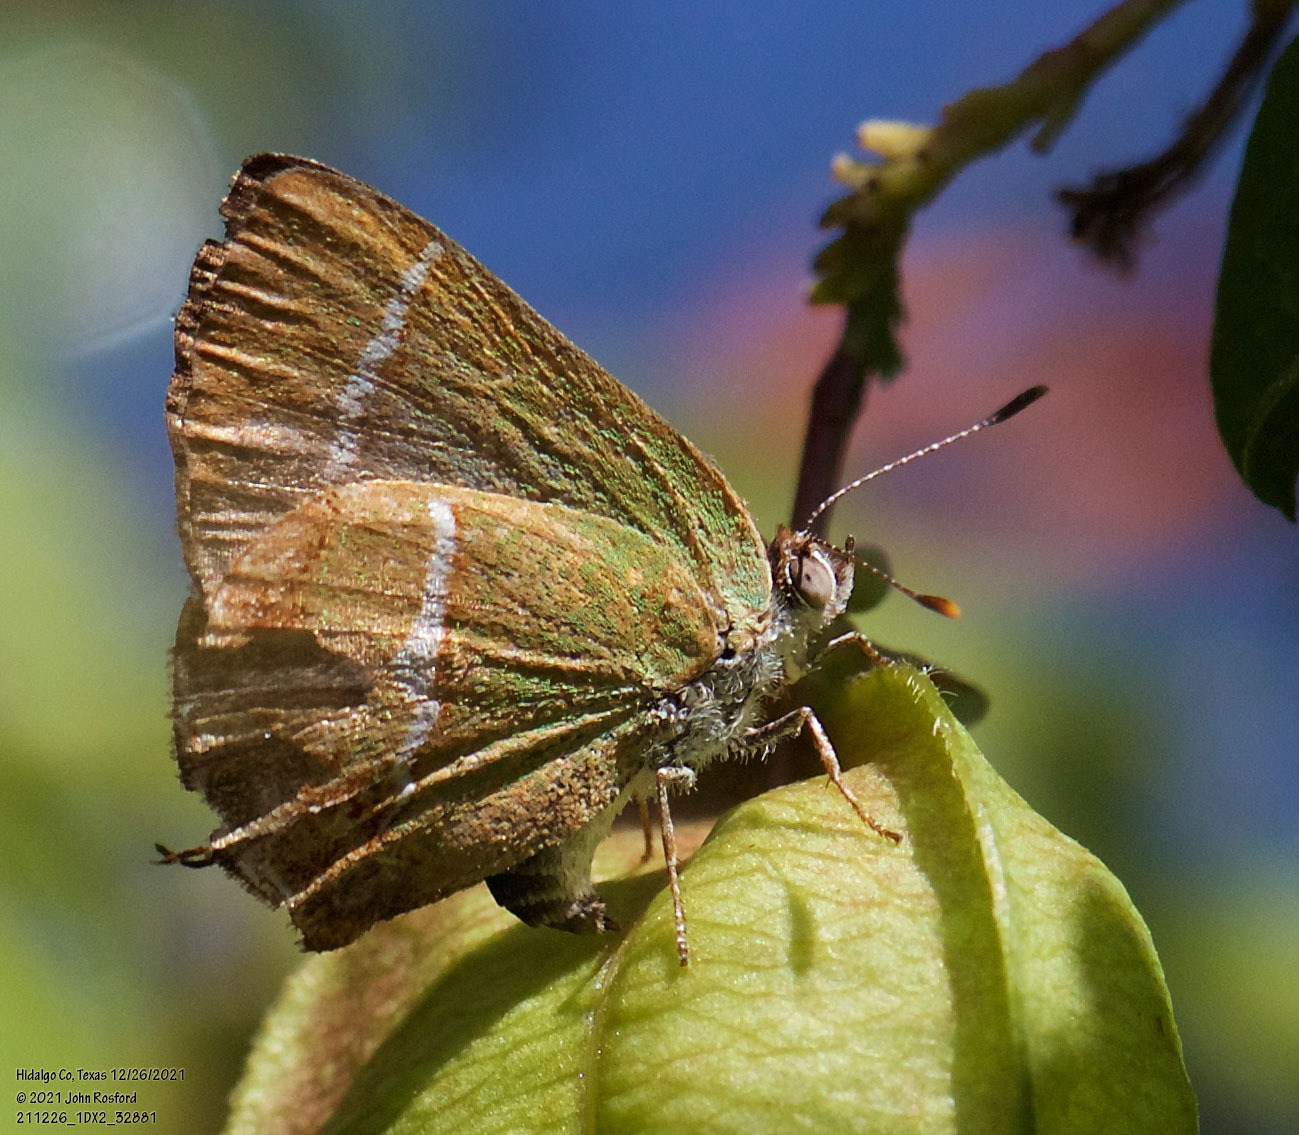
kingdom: Animalia
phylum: Arthropoda
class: Insecta
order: Lepidoptera
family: Lycaenidae
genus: Chlorostrymon
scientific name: Chlorostrymon simaethis
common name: Silver-banded hairstreak
